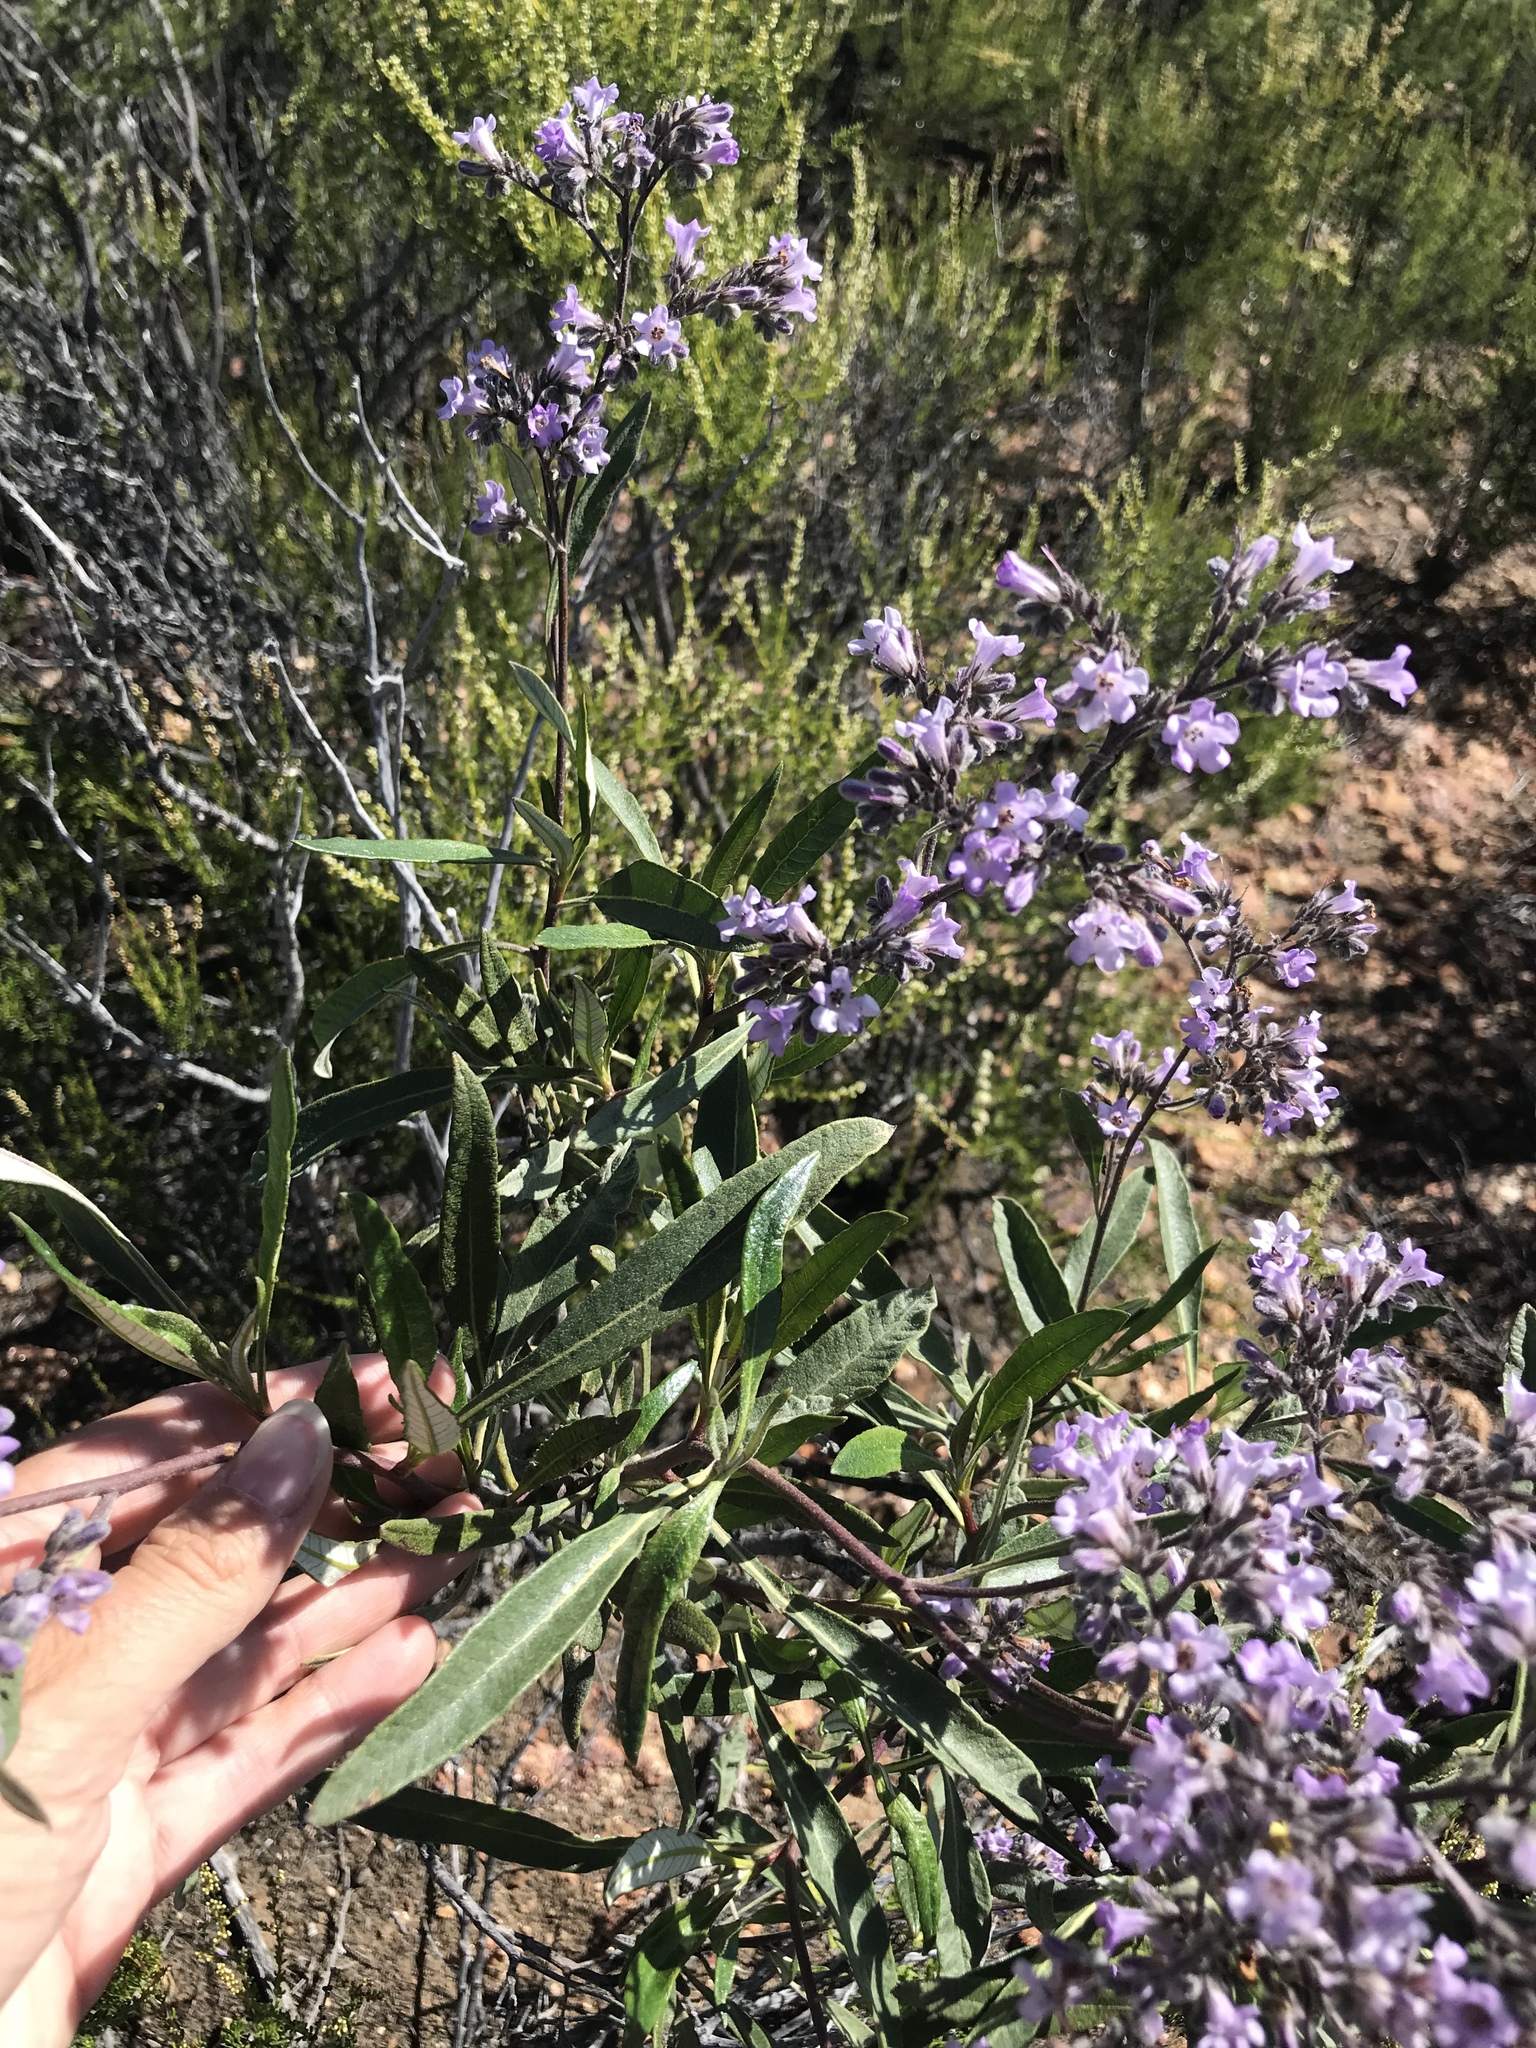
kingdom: Plantae
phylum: Tracheophyta
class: Magnoliopsida
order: Boraginales
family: Namaceae
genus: Eriodictyon
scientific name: Eriodictyon trichocalyx
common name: Hairy yerba-santa
